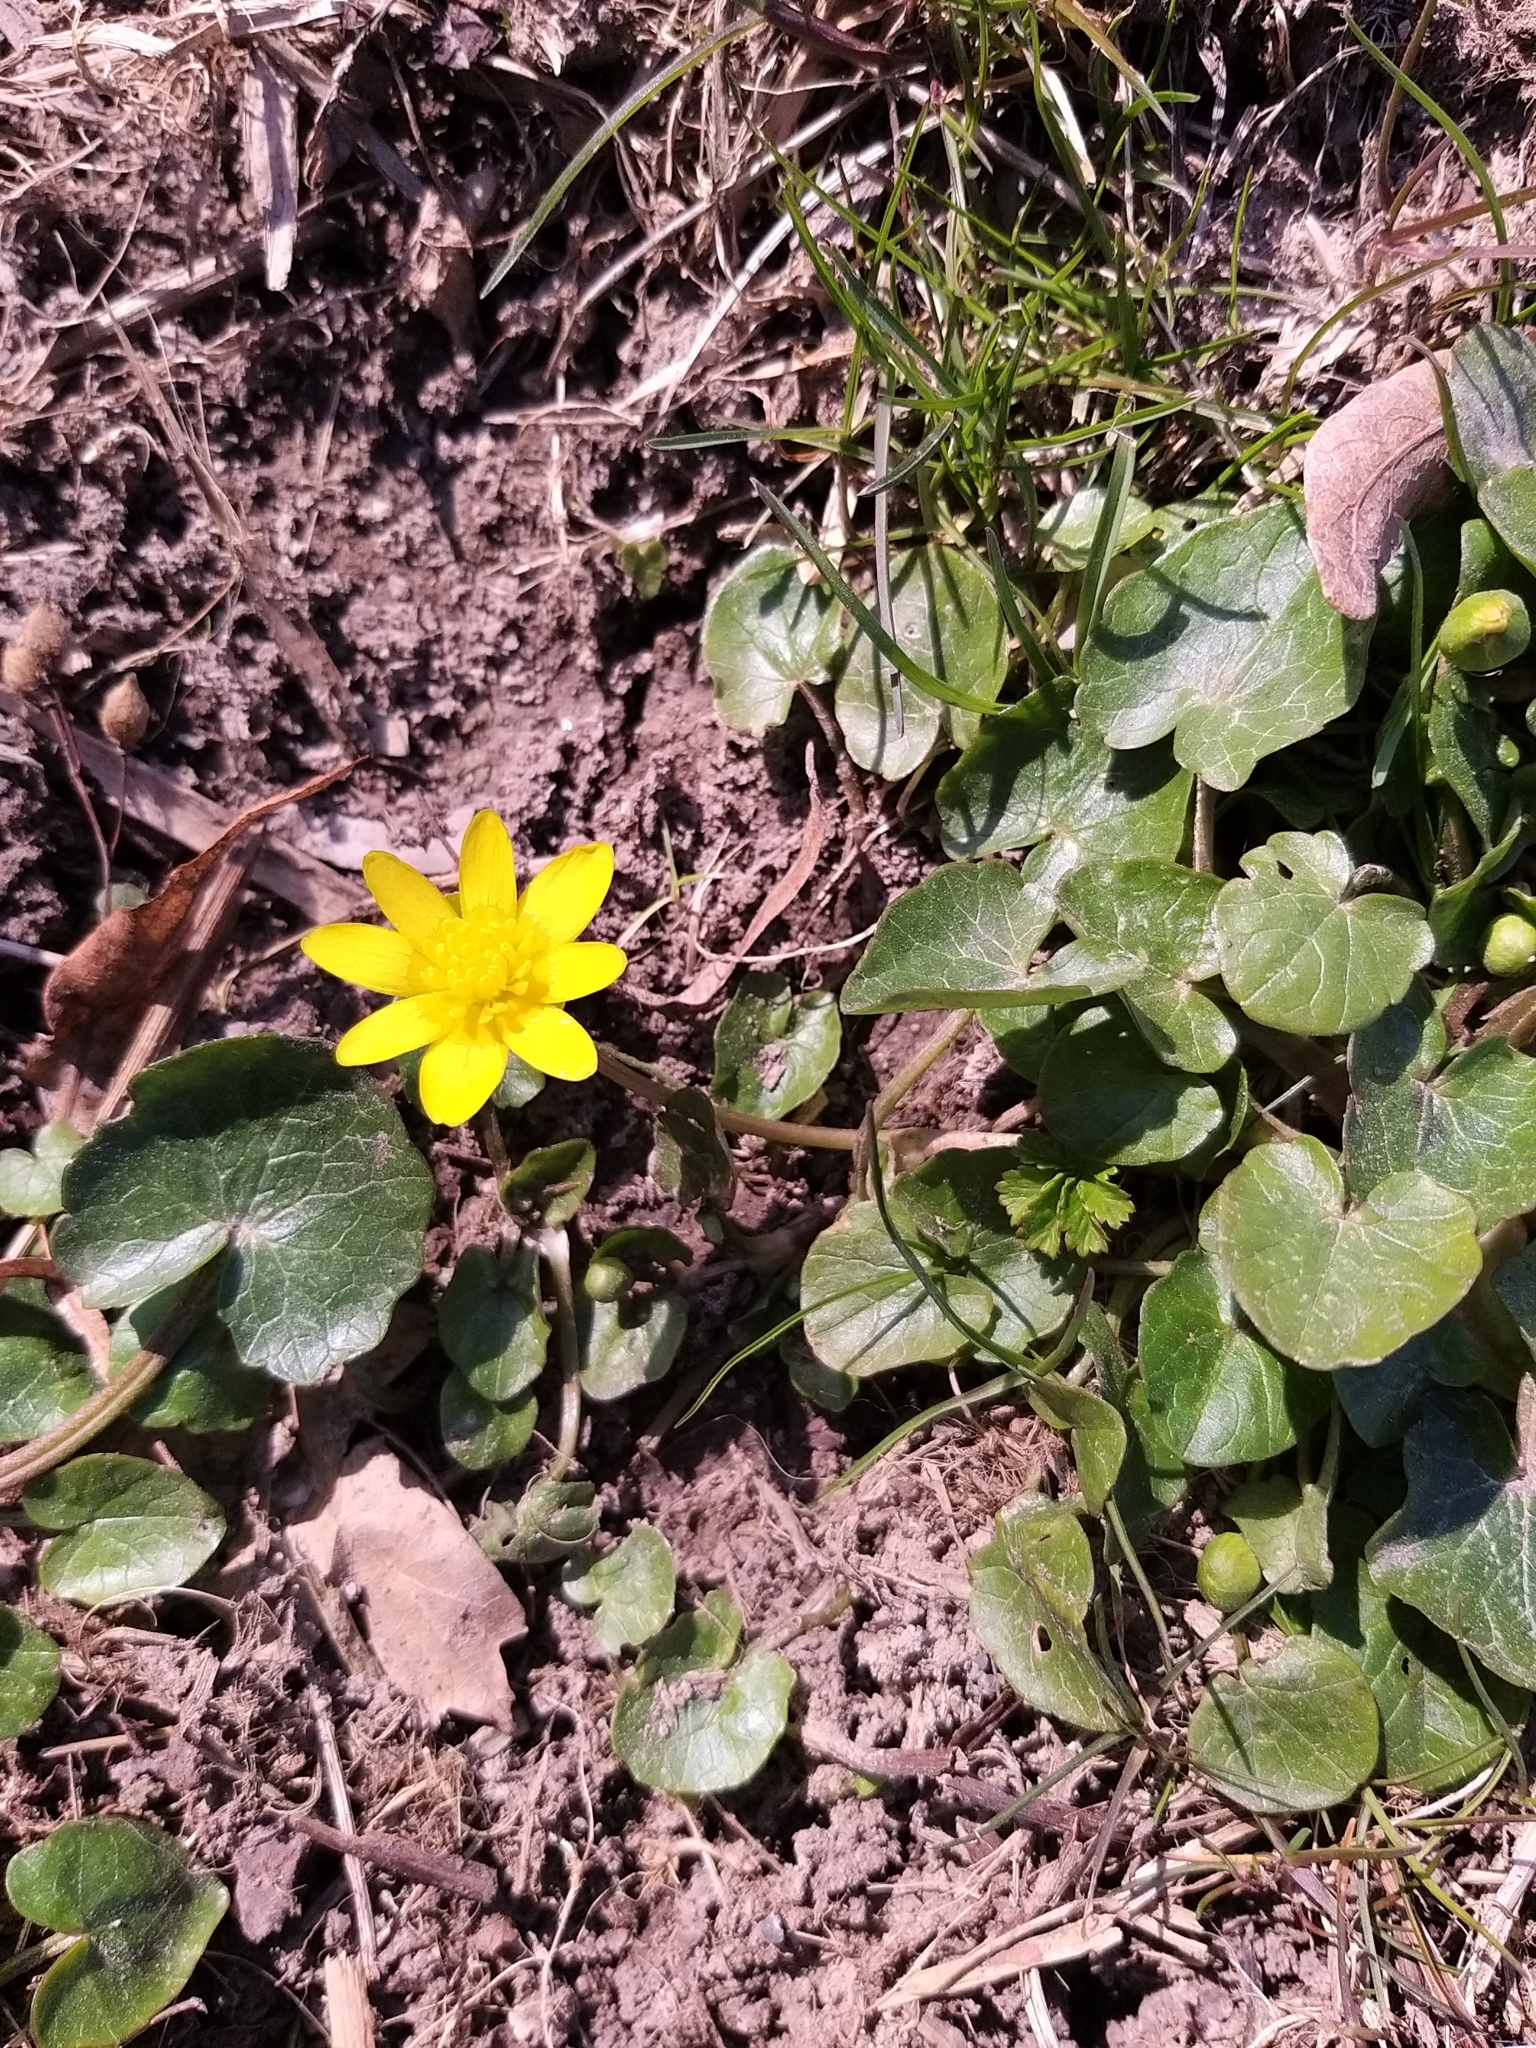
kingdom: Plantae
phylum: Tracheophyta
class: Magnoliopsida
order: Ranunculales
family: Ranunculaceae
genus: Ficaria
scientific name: Ficaria verna
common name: Lesser celandine
